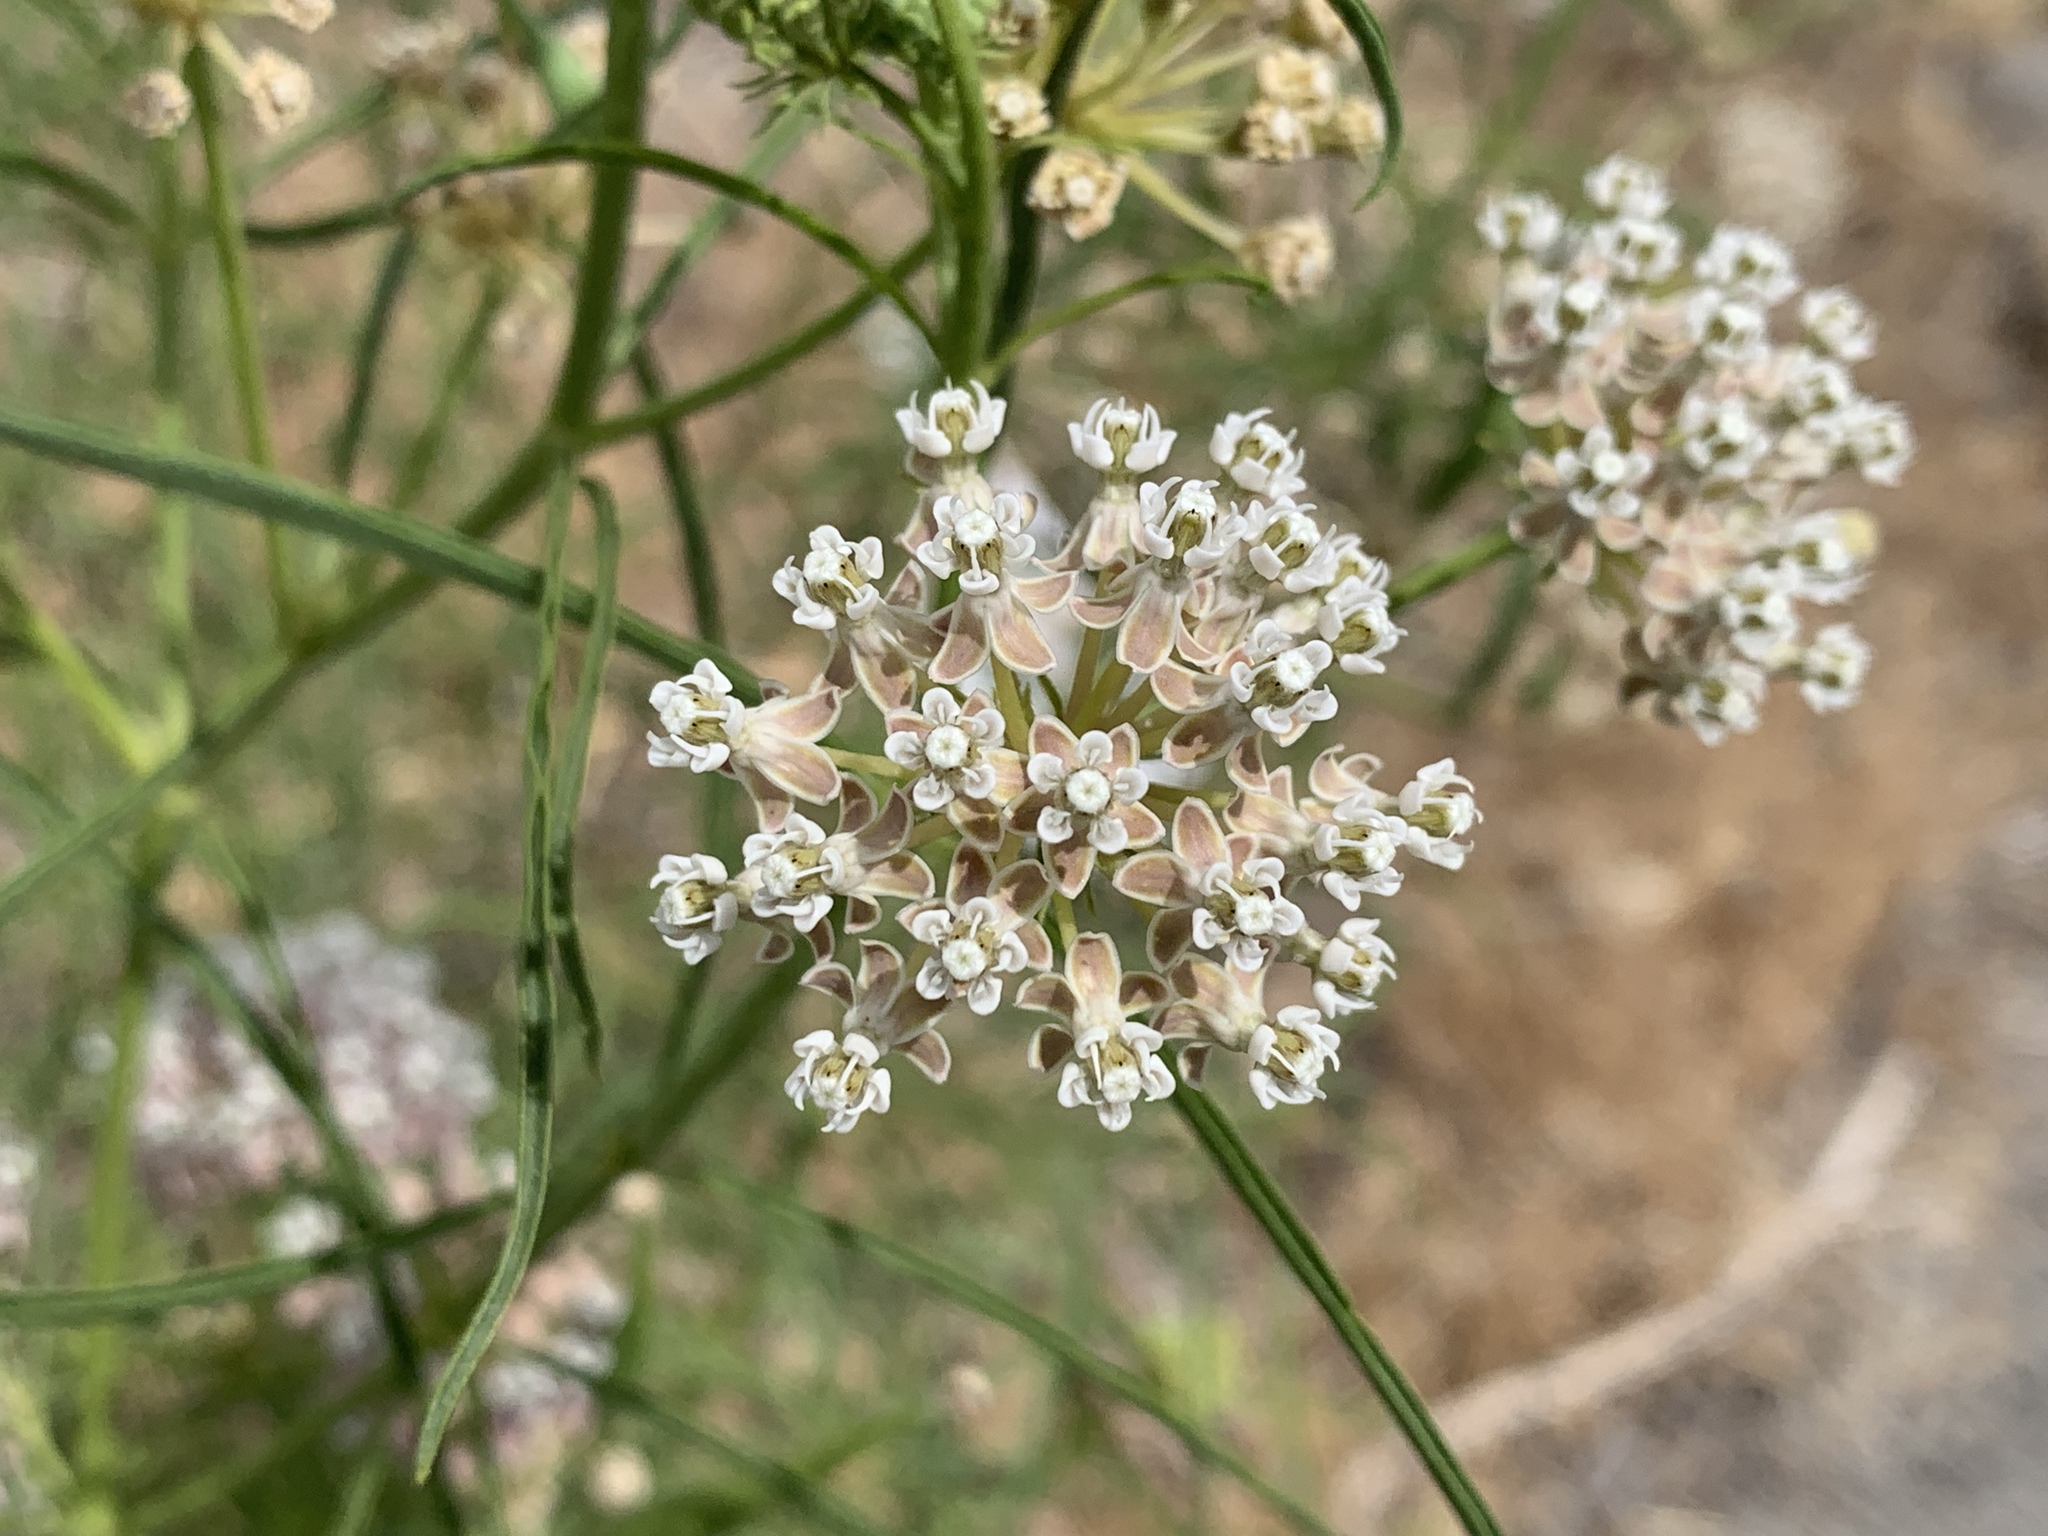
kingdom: Plantae
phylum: Tracheophyta
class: Magnoliopsida
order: Gentianales
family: Apocynaceae
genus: Asclepias
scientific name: Asclepias fascicularis
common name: Mexican milkweed
